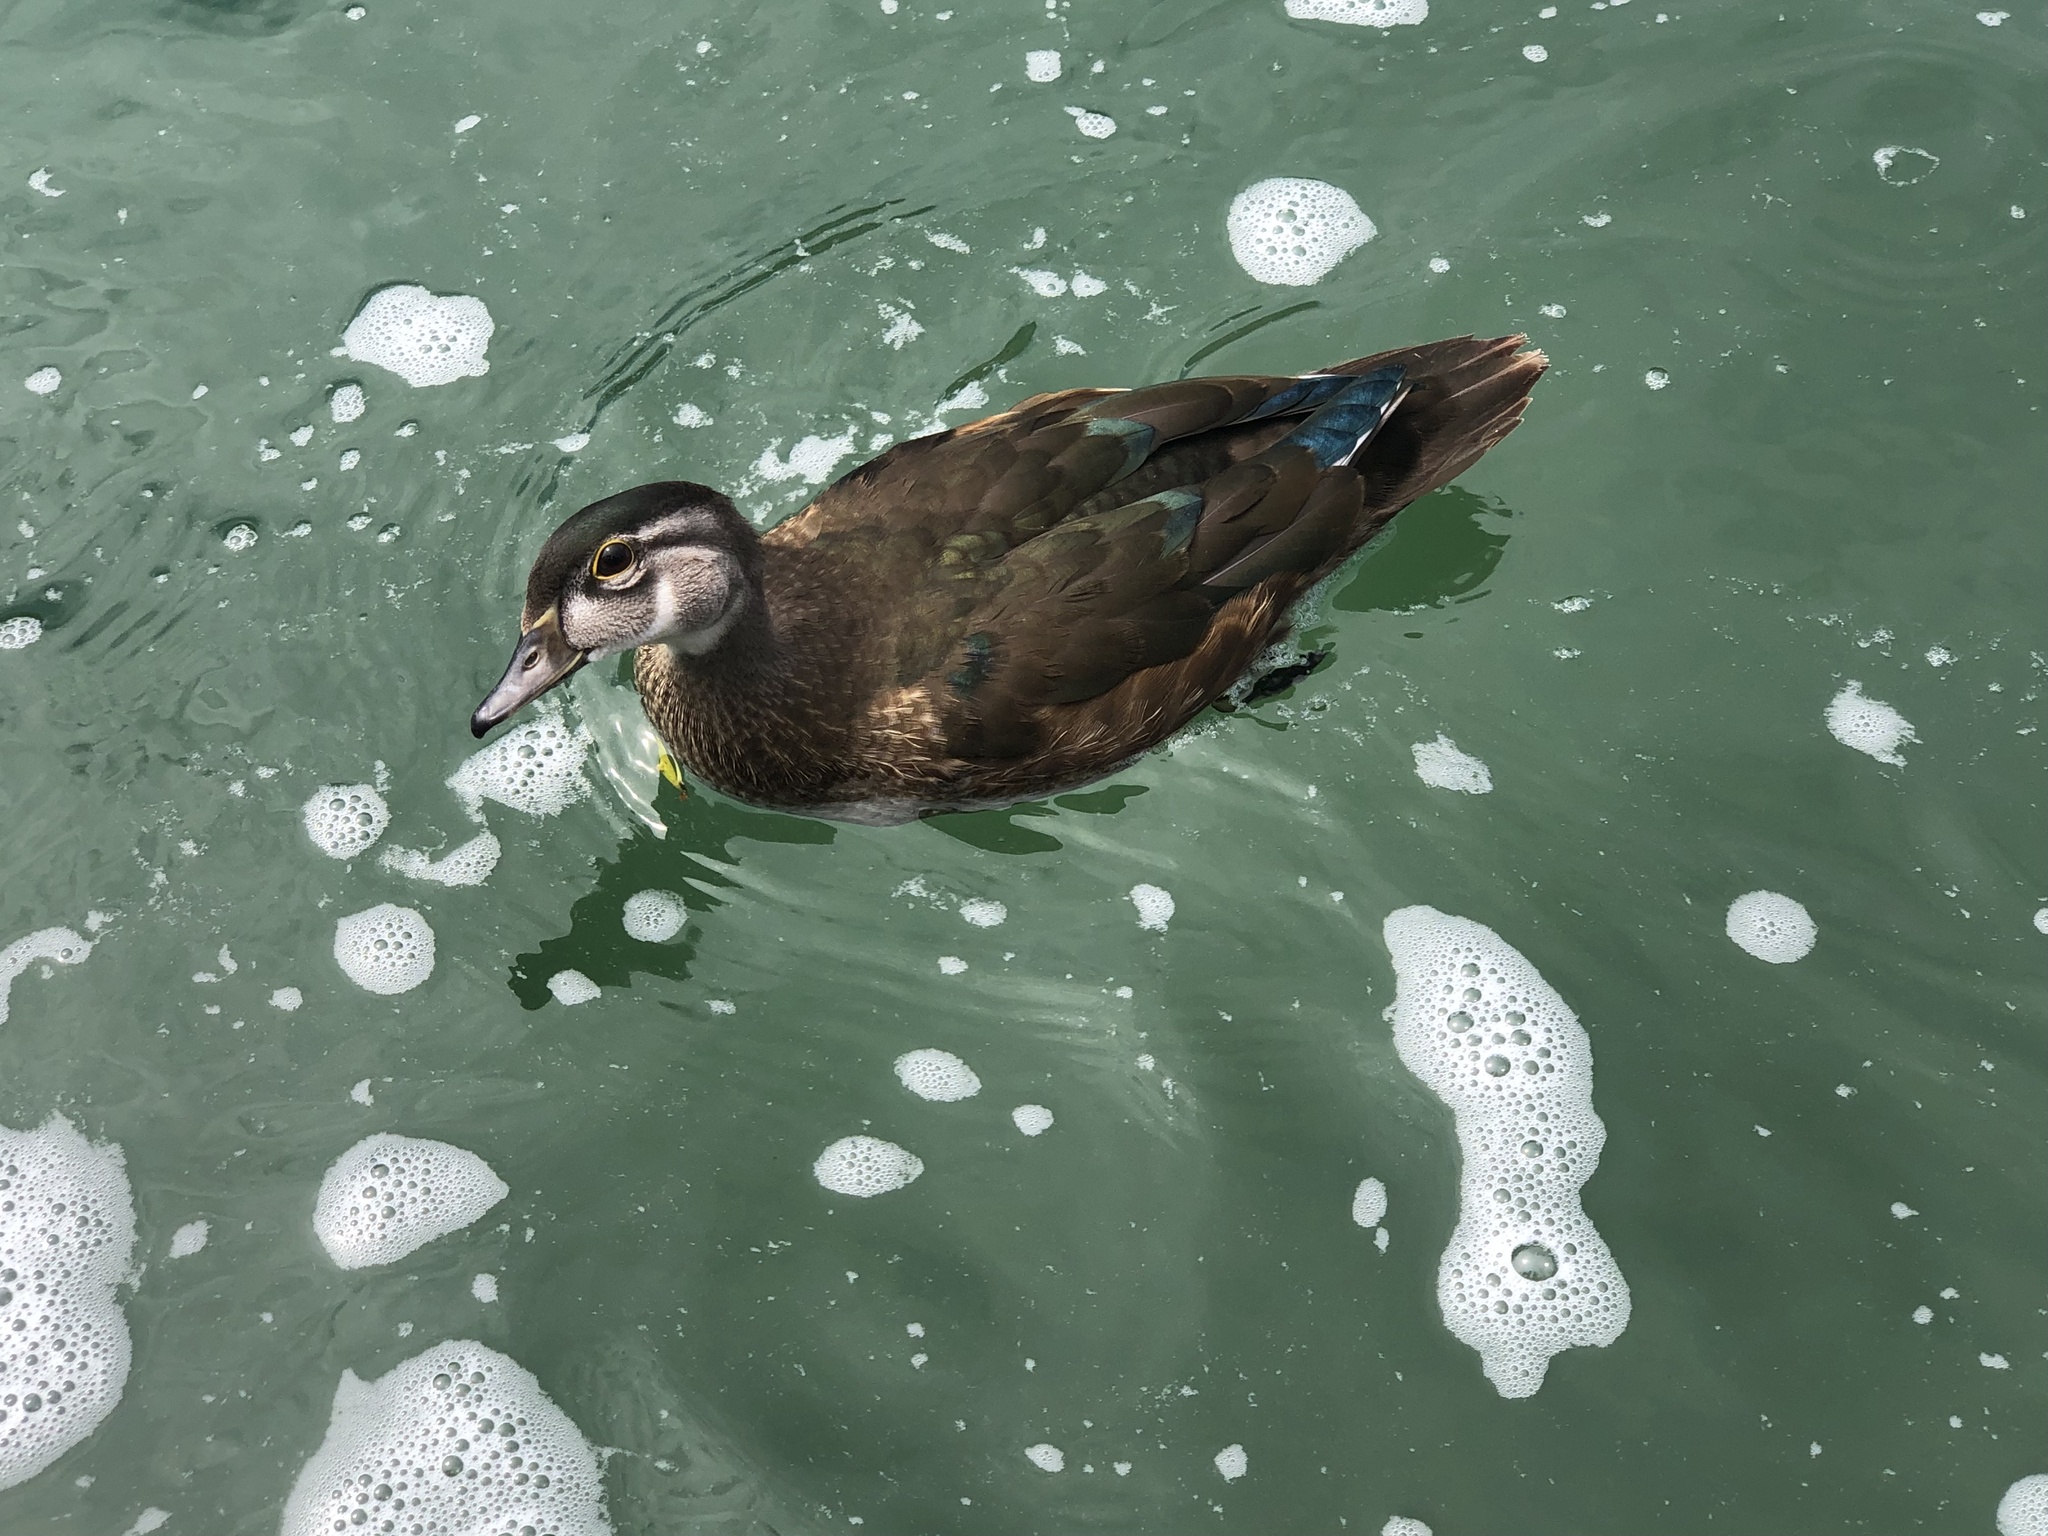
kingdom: Animalia
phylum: Chordata
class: Aves
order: Anseriformes
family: Anatidae
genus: Aix
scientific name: Aix sponsa
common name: Wood duck
